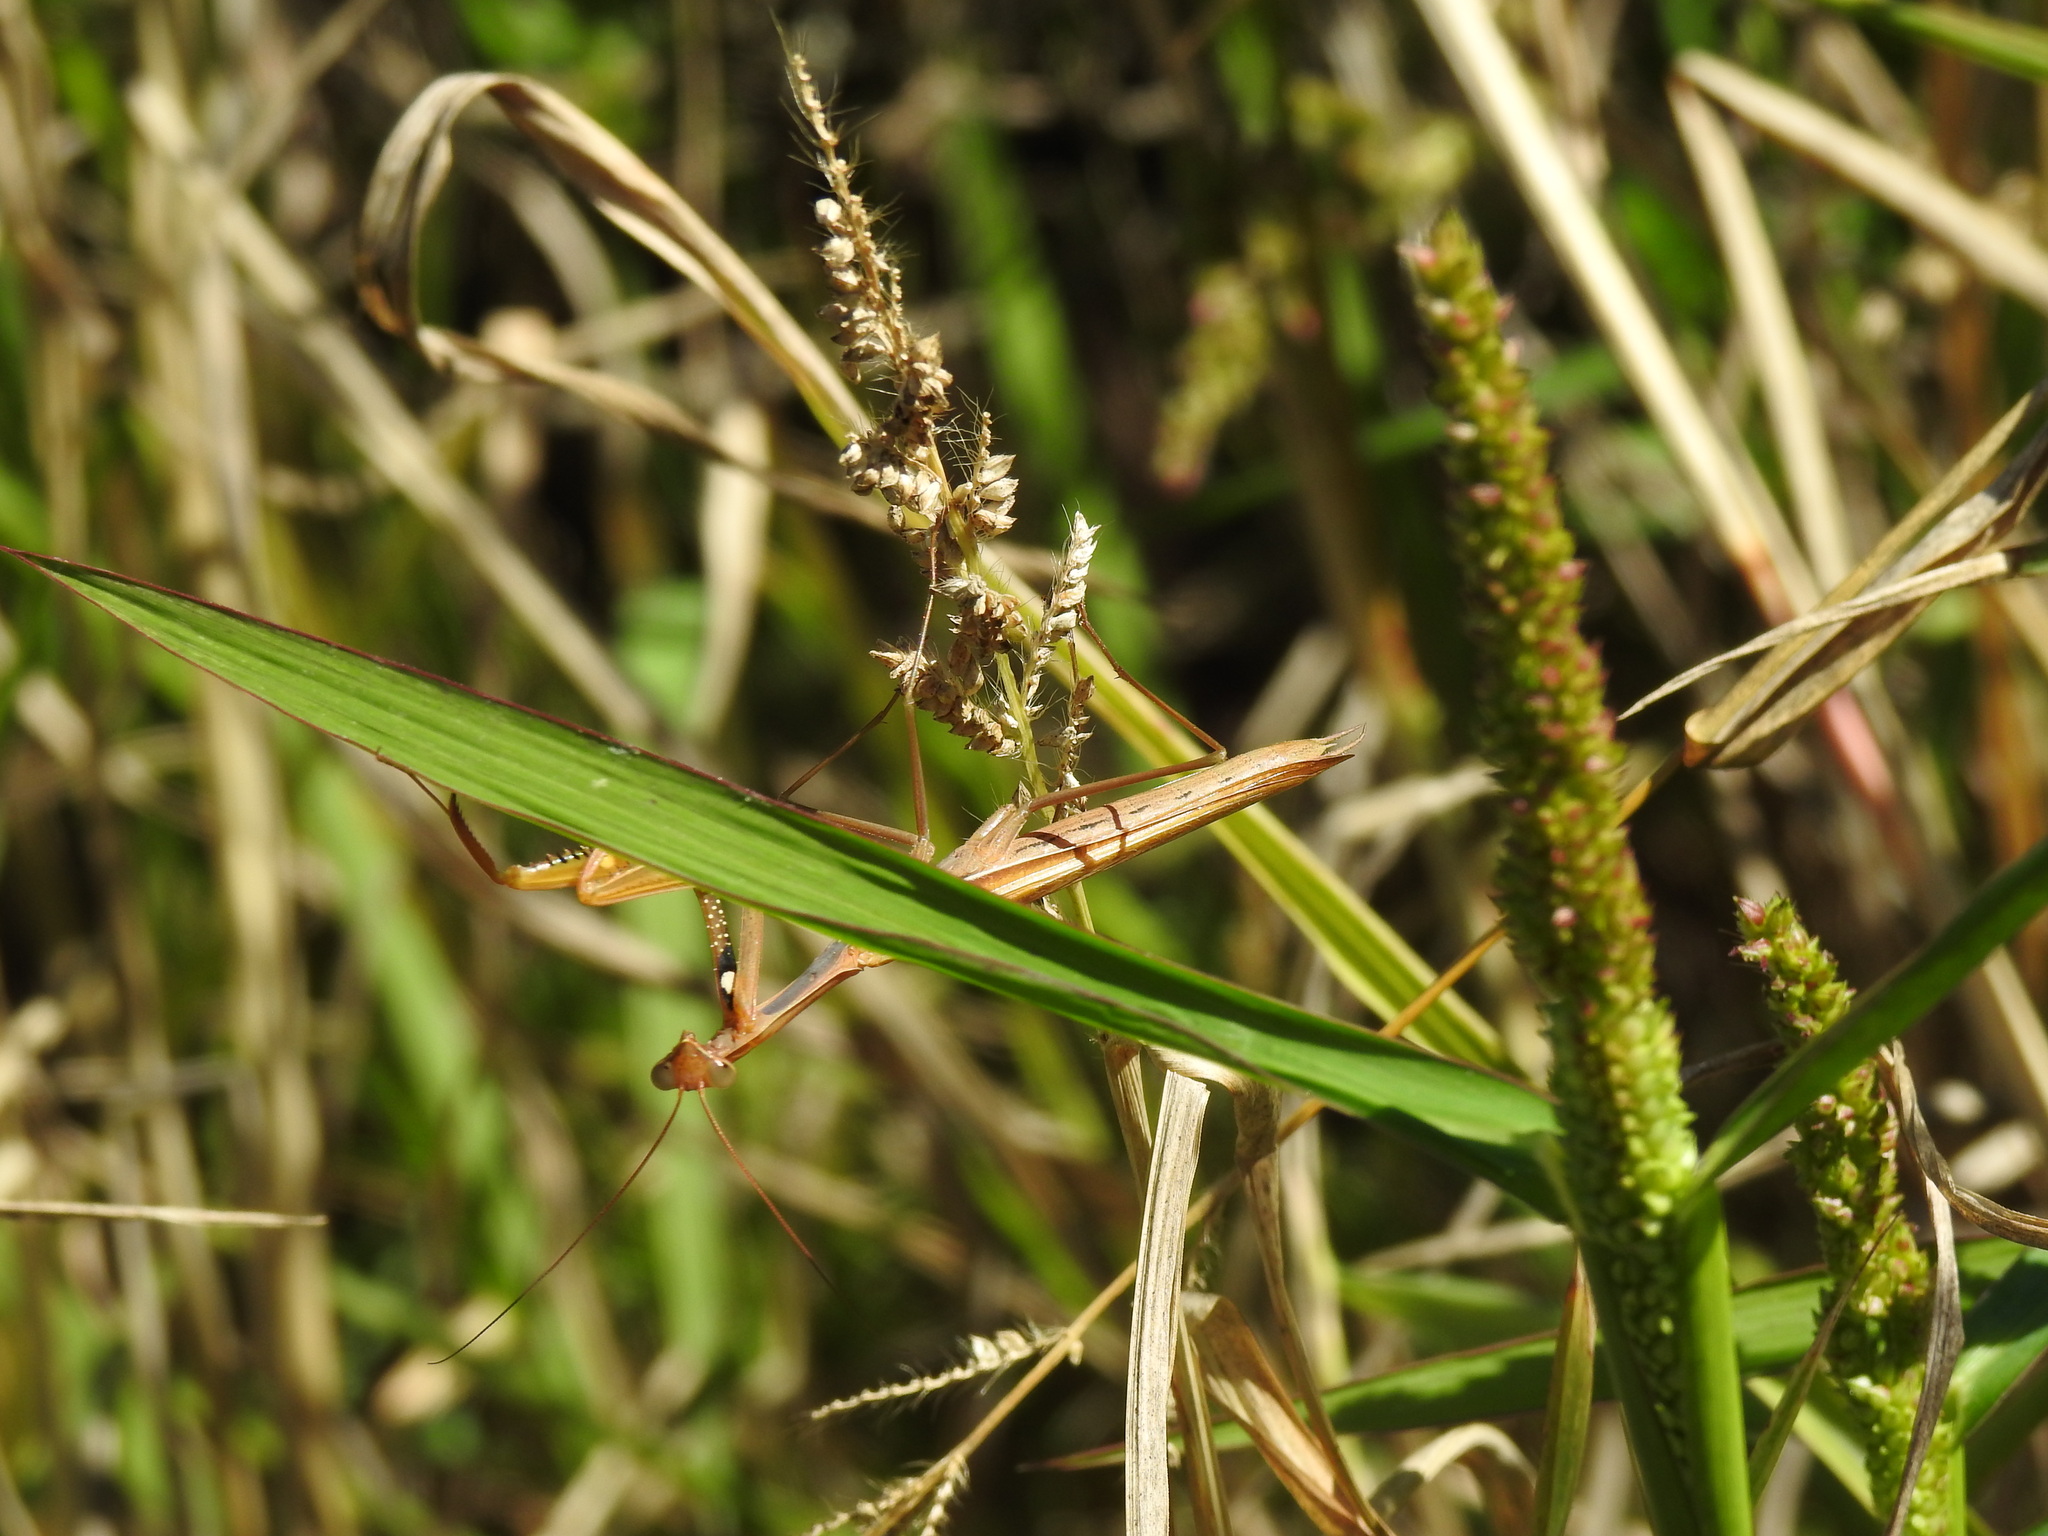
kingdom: Animalia
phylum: Arthropoda
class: Insecta
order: Mantodea
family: Mantidae
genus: Mantis
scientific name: Mantis religiosa
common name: Praying mantis
